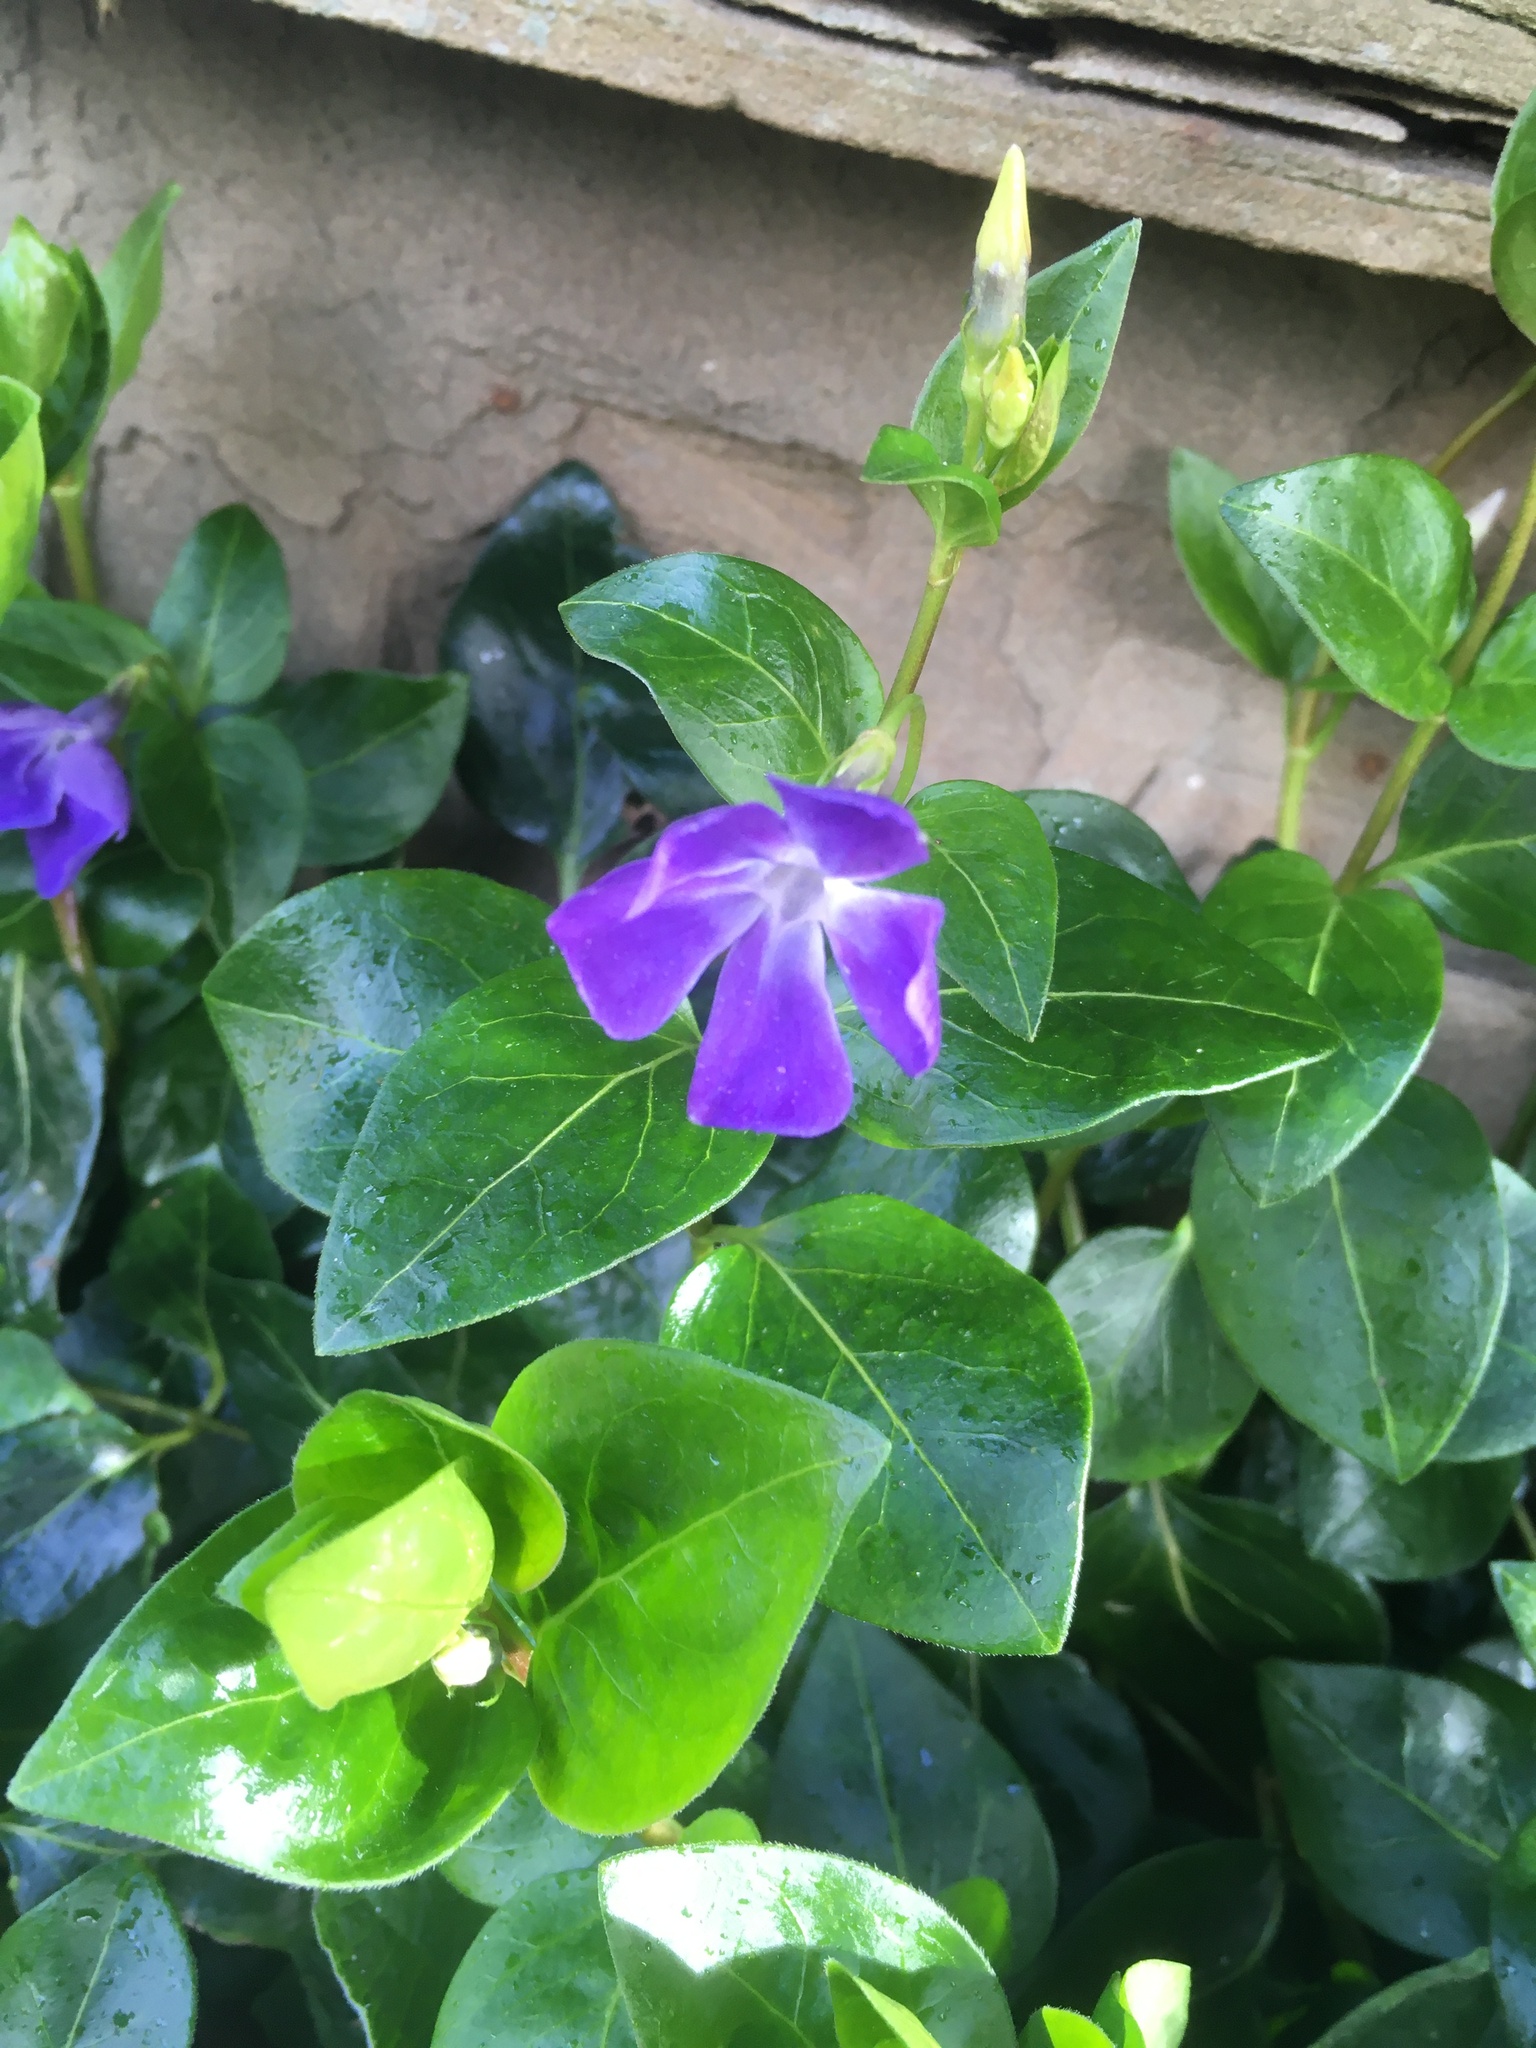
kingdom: Plantae
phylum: Tracheophyta
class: Magnoliopsida
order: Gentianales
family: Apocynaceae
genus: Vinca
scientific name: Vinca major
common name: Greater periwinkle
